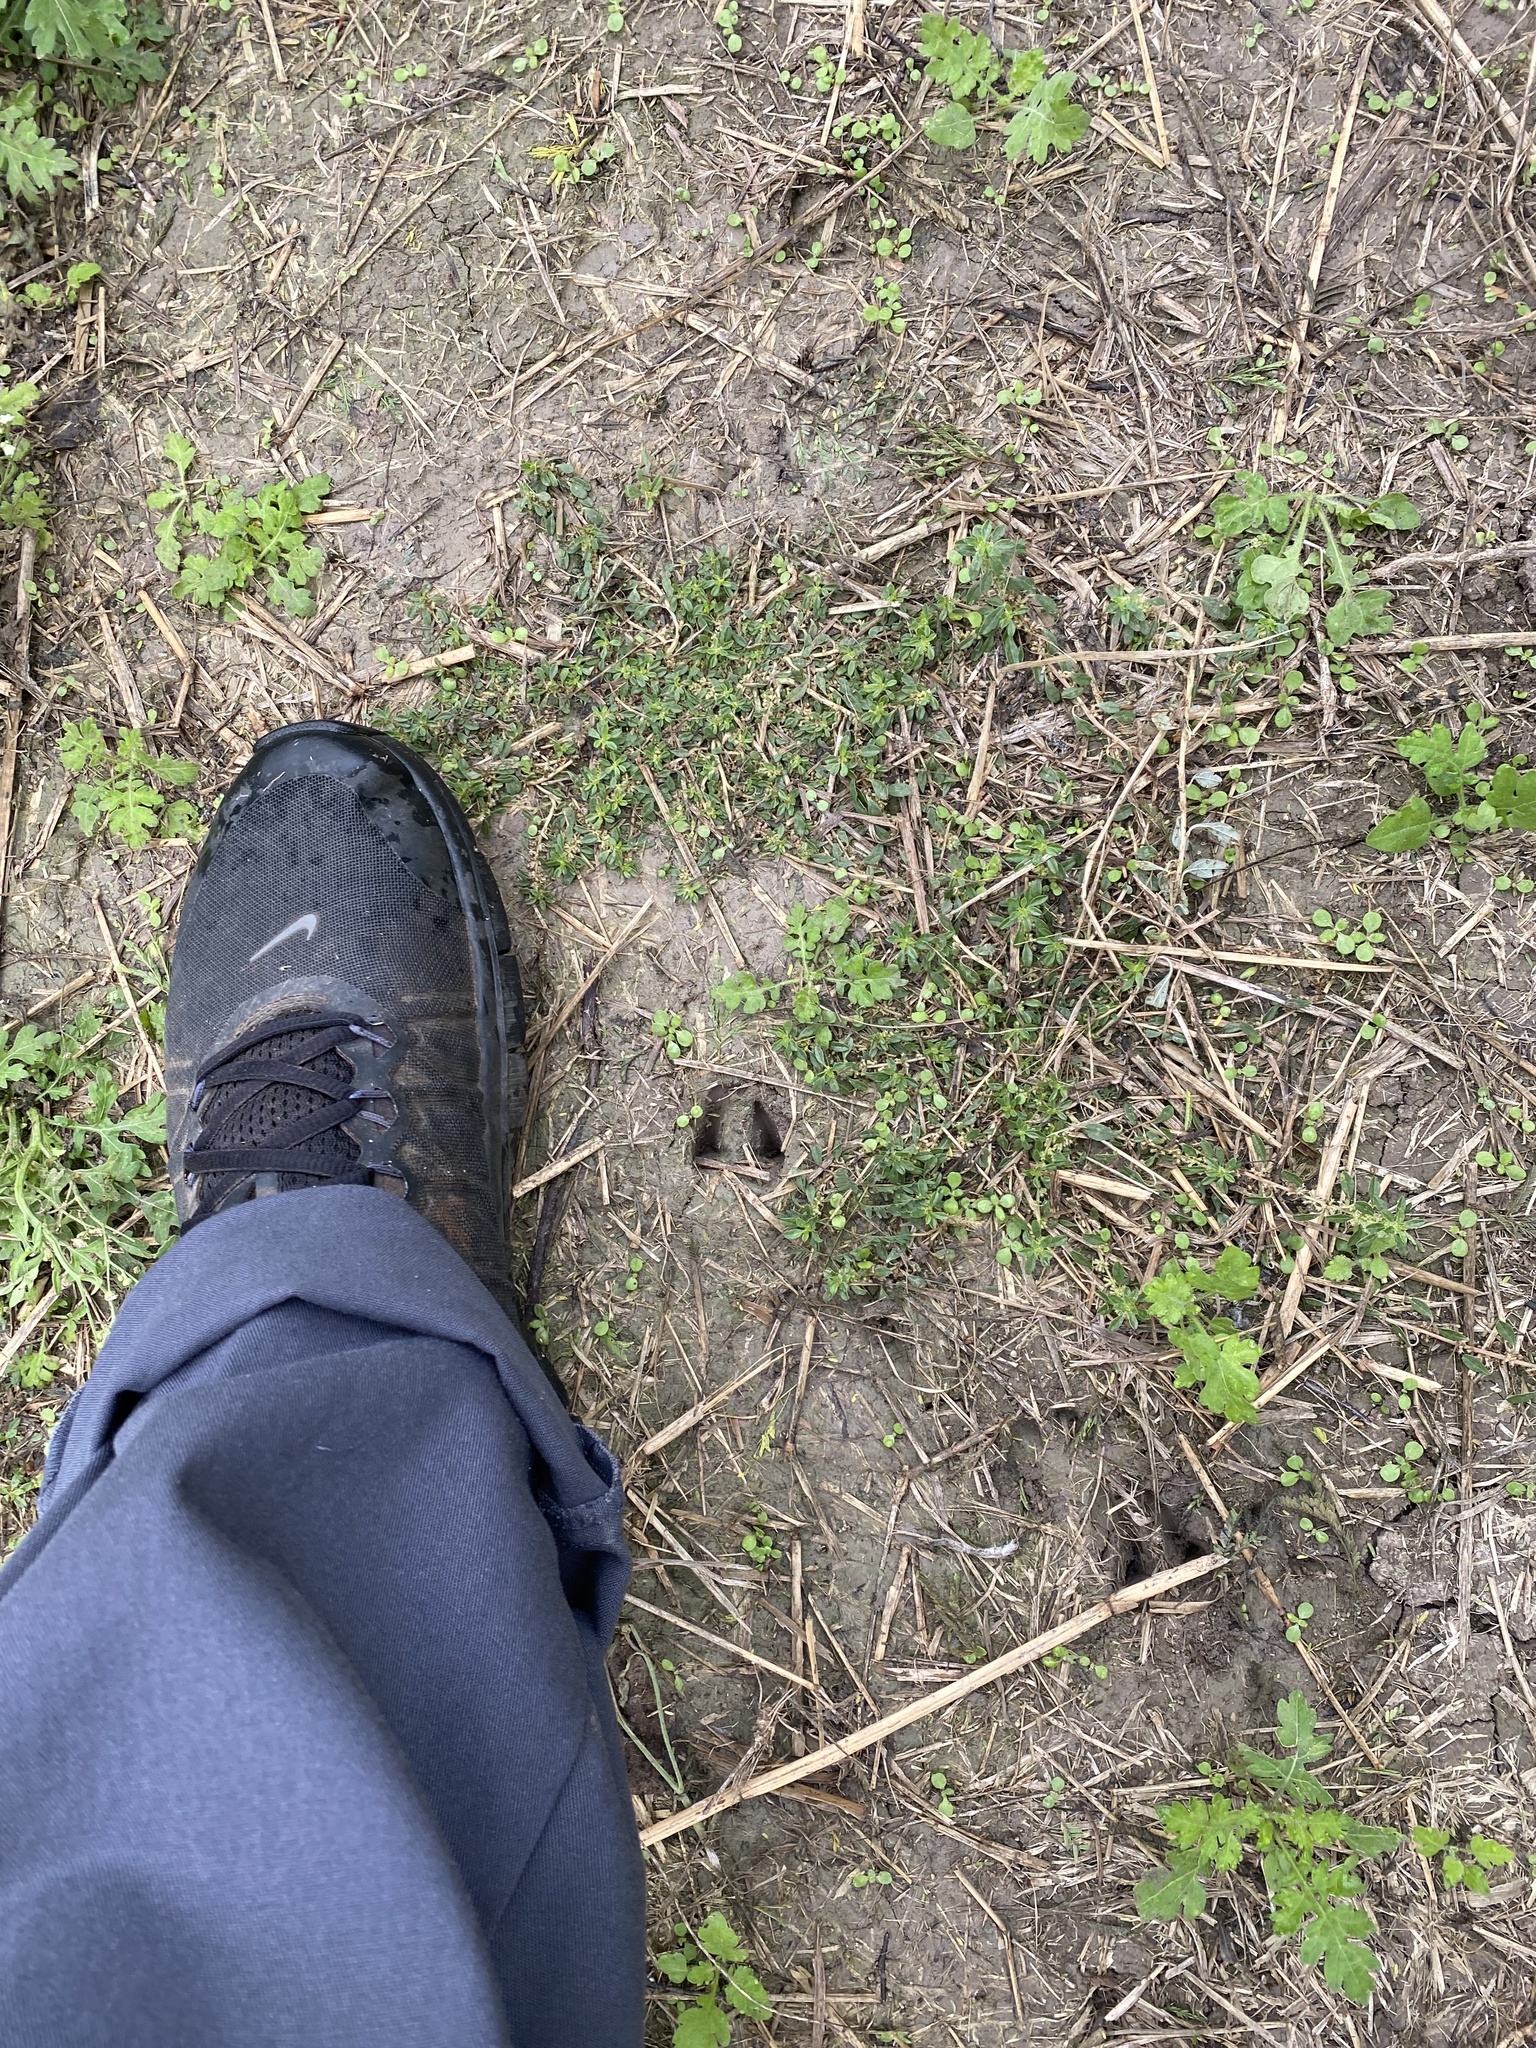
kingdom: Animalia
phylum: Chordata
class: Mammalia
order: Artiodactyla
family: Tayassuidae
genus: Pecari
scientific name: Pecari tajacu
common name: Collared peccary
